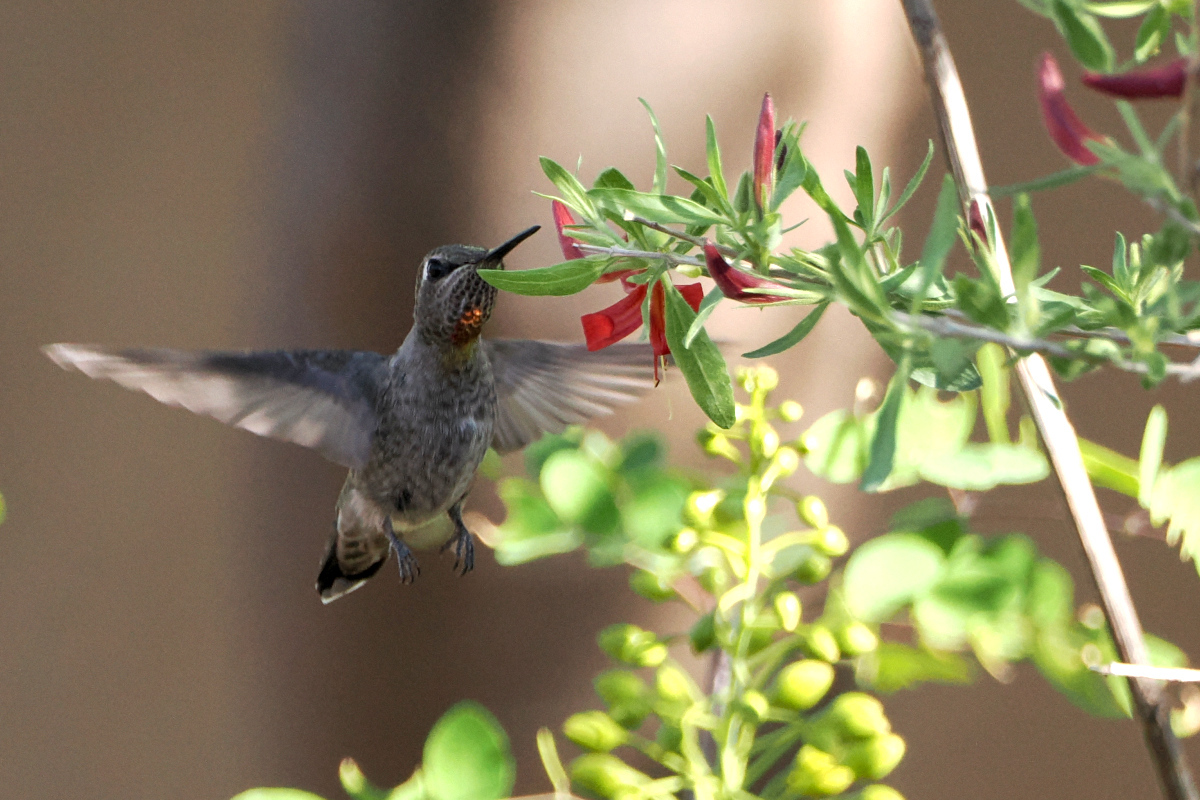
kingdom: Animalia
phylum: Chordata
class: Aves
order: Apodiformes
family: Trochilidae
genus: Calypte
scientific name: Calypte anna
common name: Anna's hummingbird
